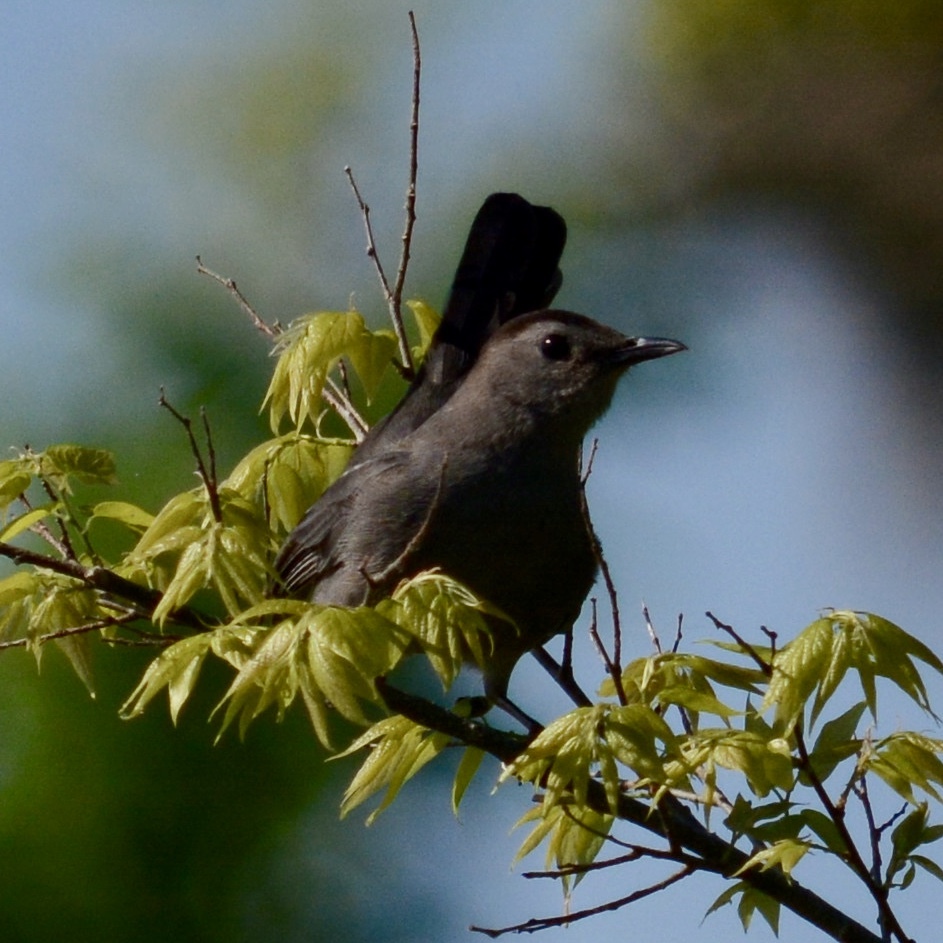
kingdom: Animalia
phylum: Chordata
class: Aves
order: Passeriformes
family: Mimidae
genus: Dumetella
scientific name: Dumetella carolinensis
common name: Gray catbird
